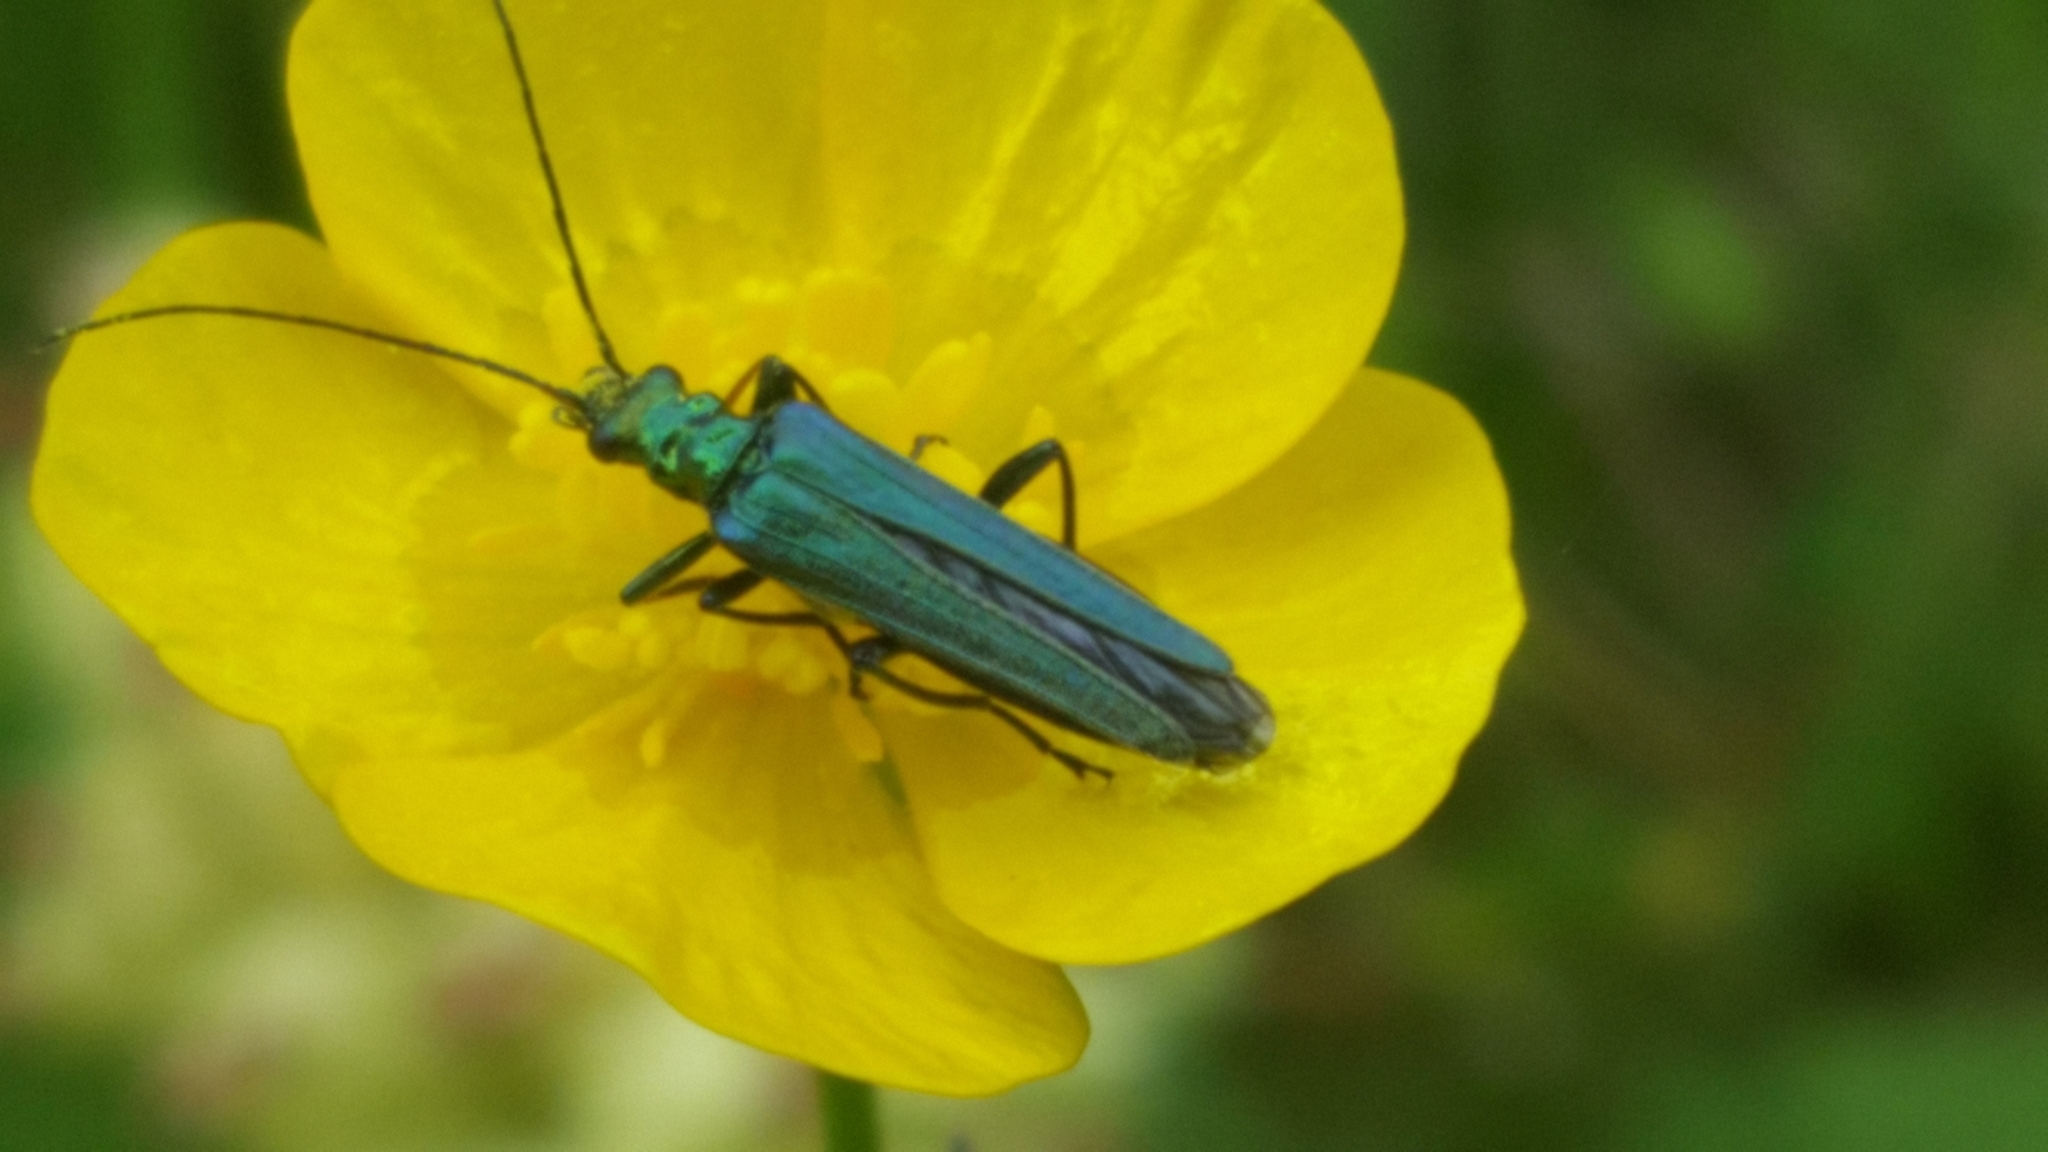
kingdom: Animalia
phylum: Arthropoda
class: Insecta
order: Coleoptera
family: Oedemeridae
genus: Oedemera
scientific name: Oedemera nobilis
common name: Swollen-thighed beetle
